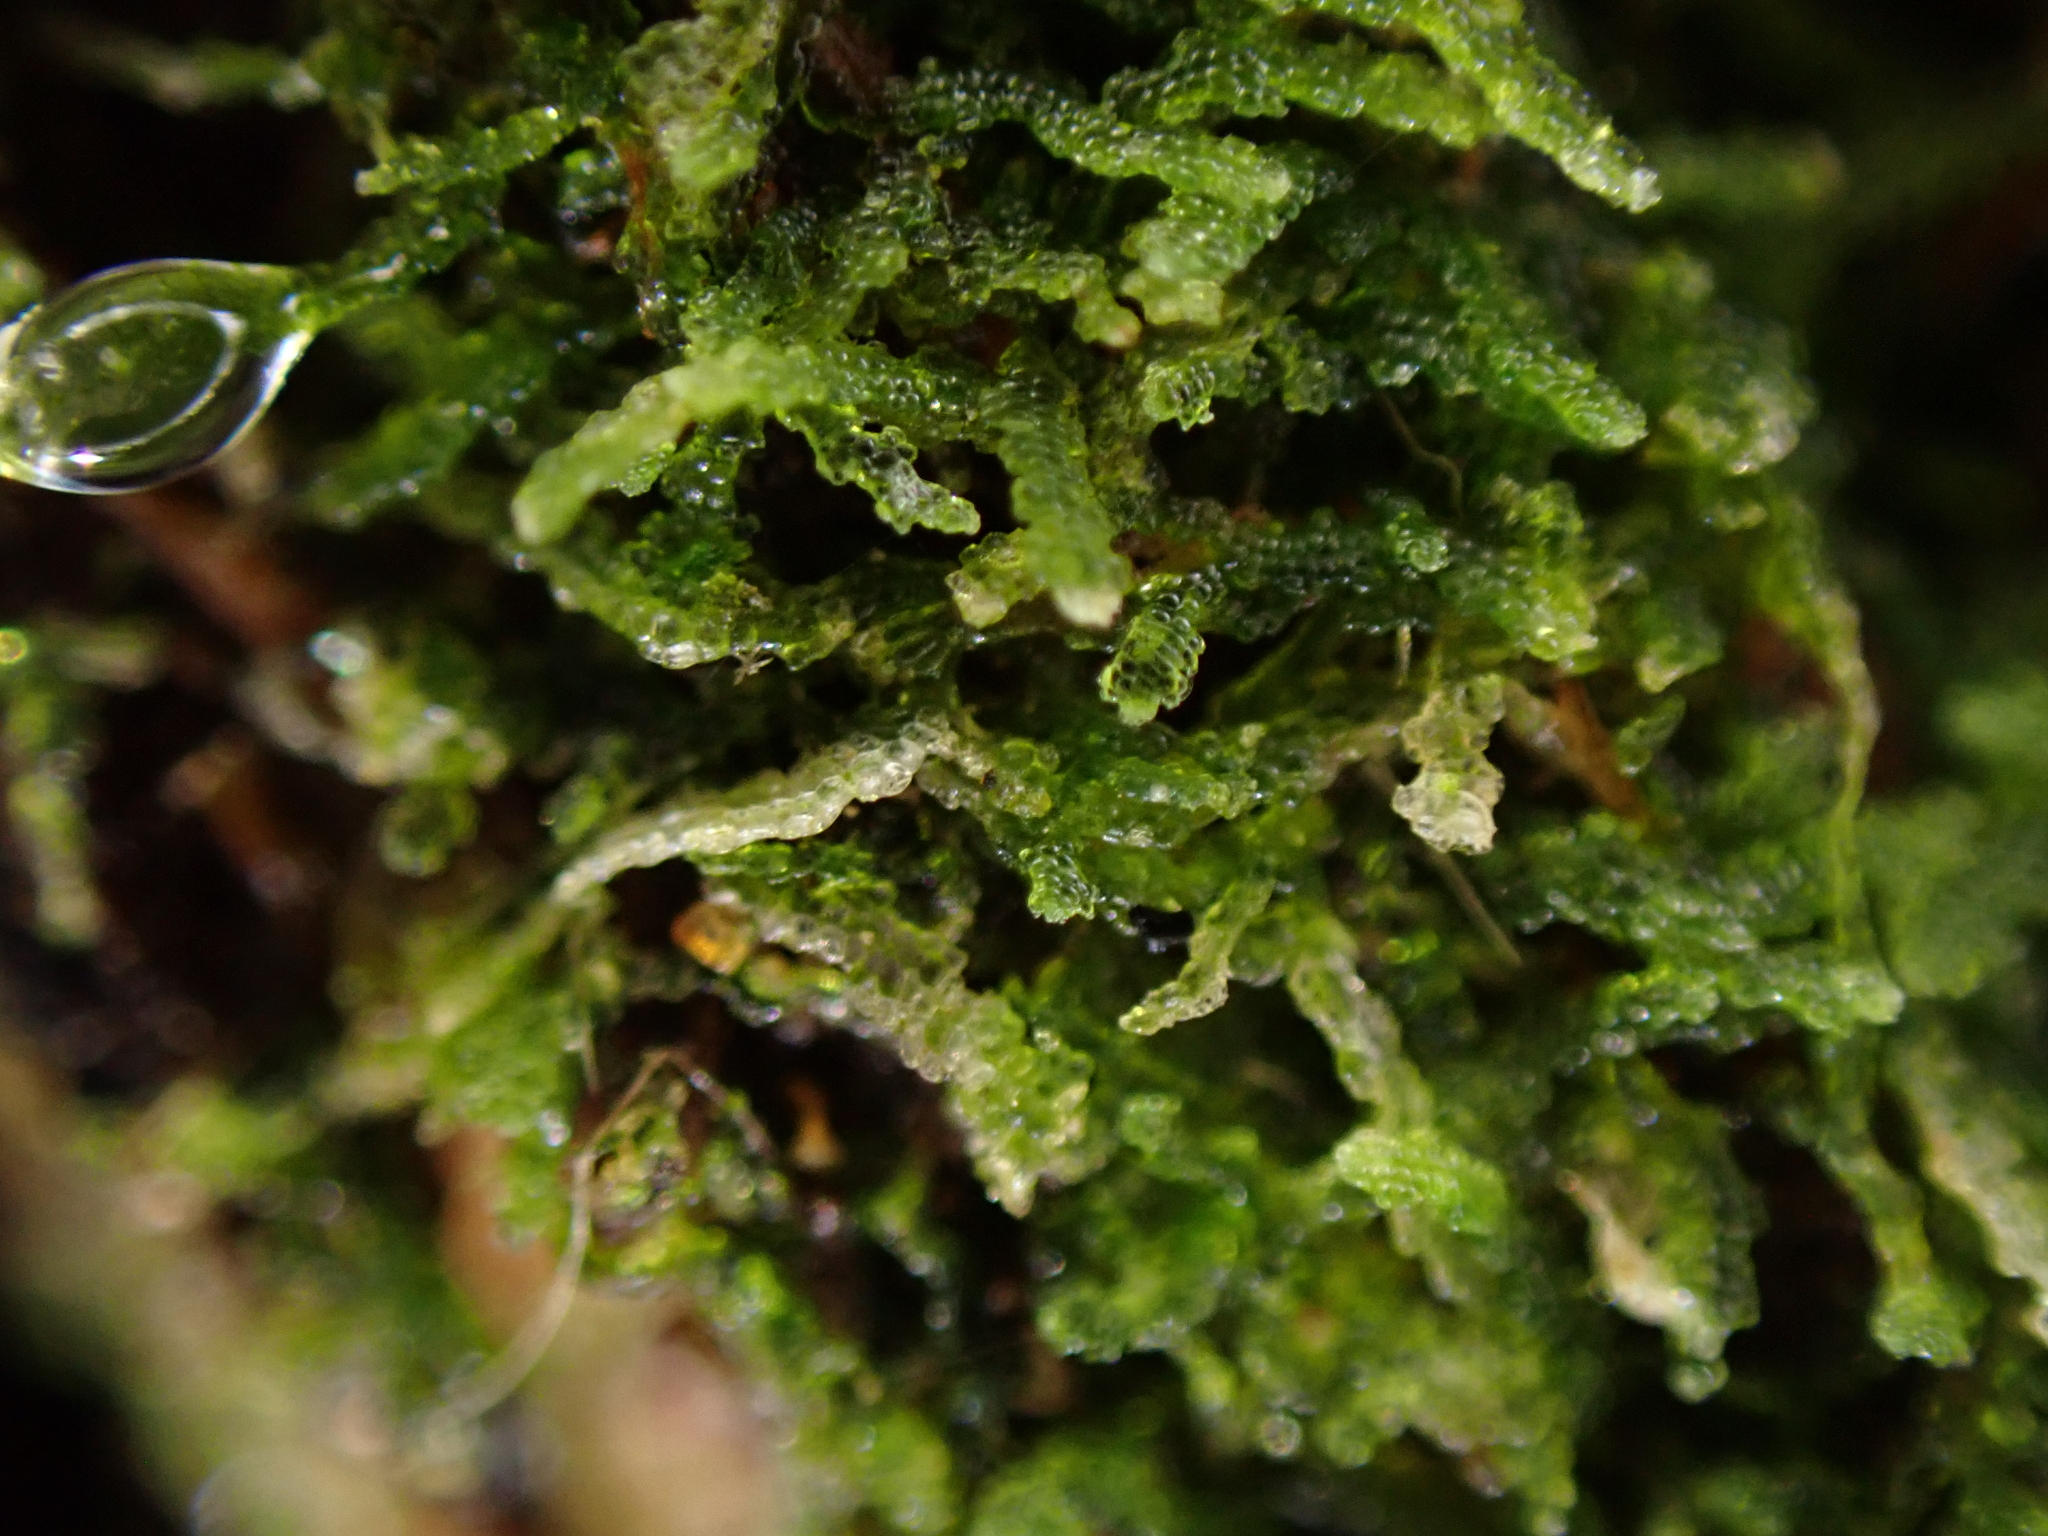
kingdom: Plantae
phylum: Marchantiophyta
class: Jungermanniopsida
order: Jungermanniales
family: Lepidoziaceae
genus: Zoopsis
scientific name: Zoopsis argentea
